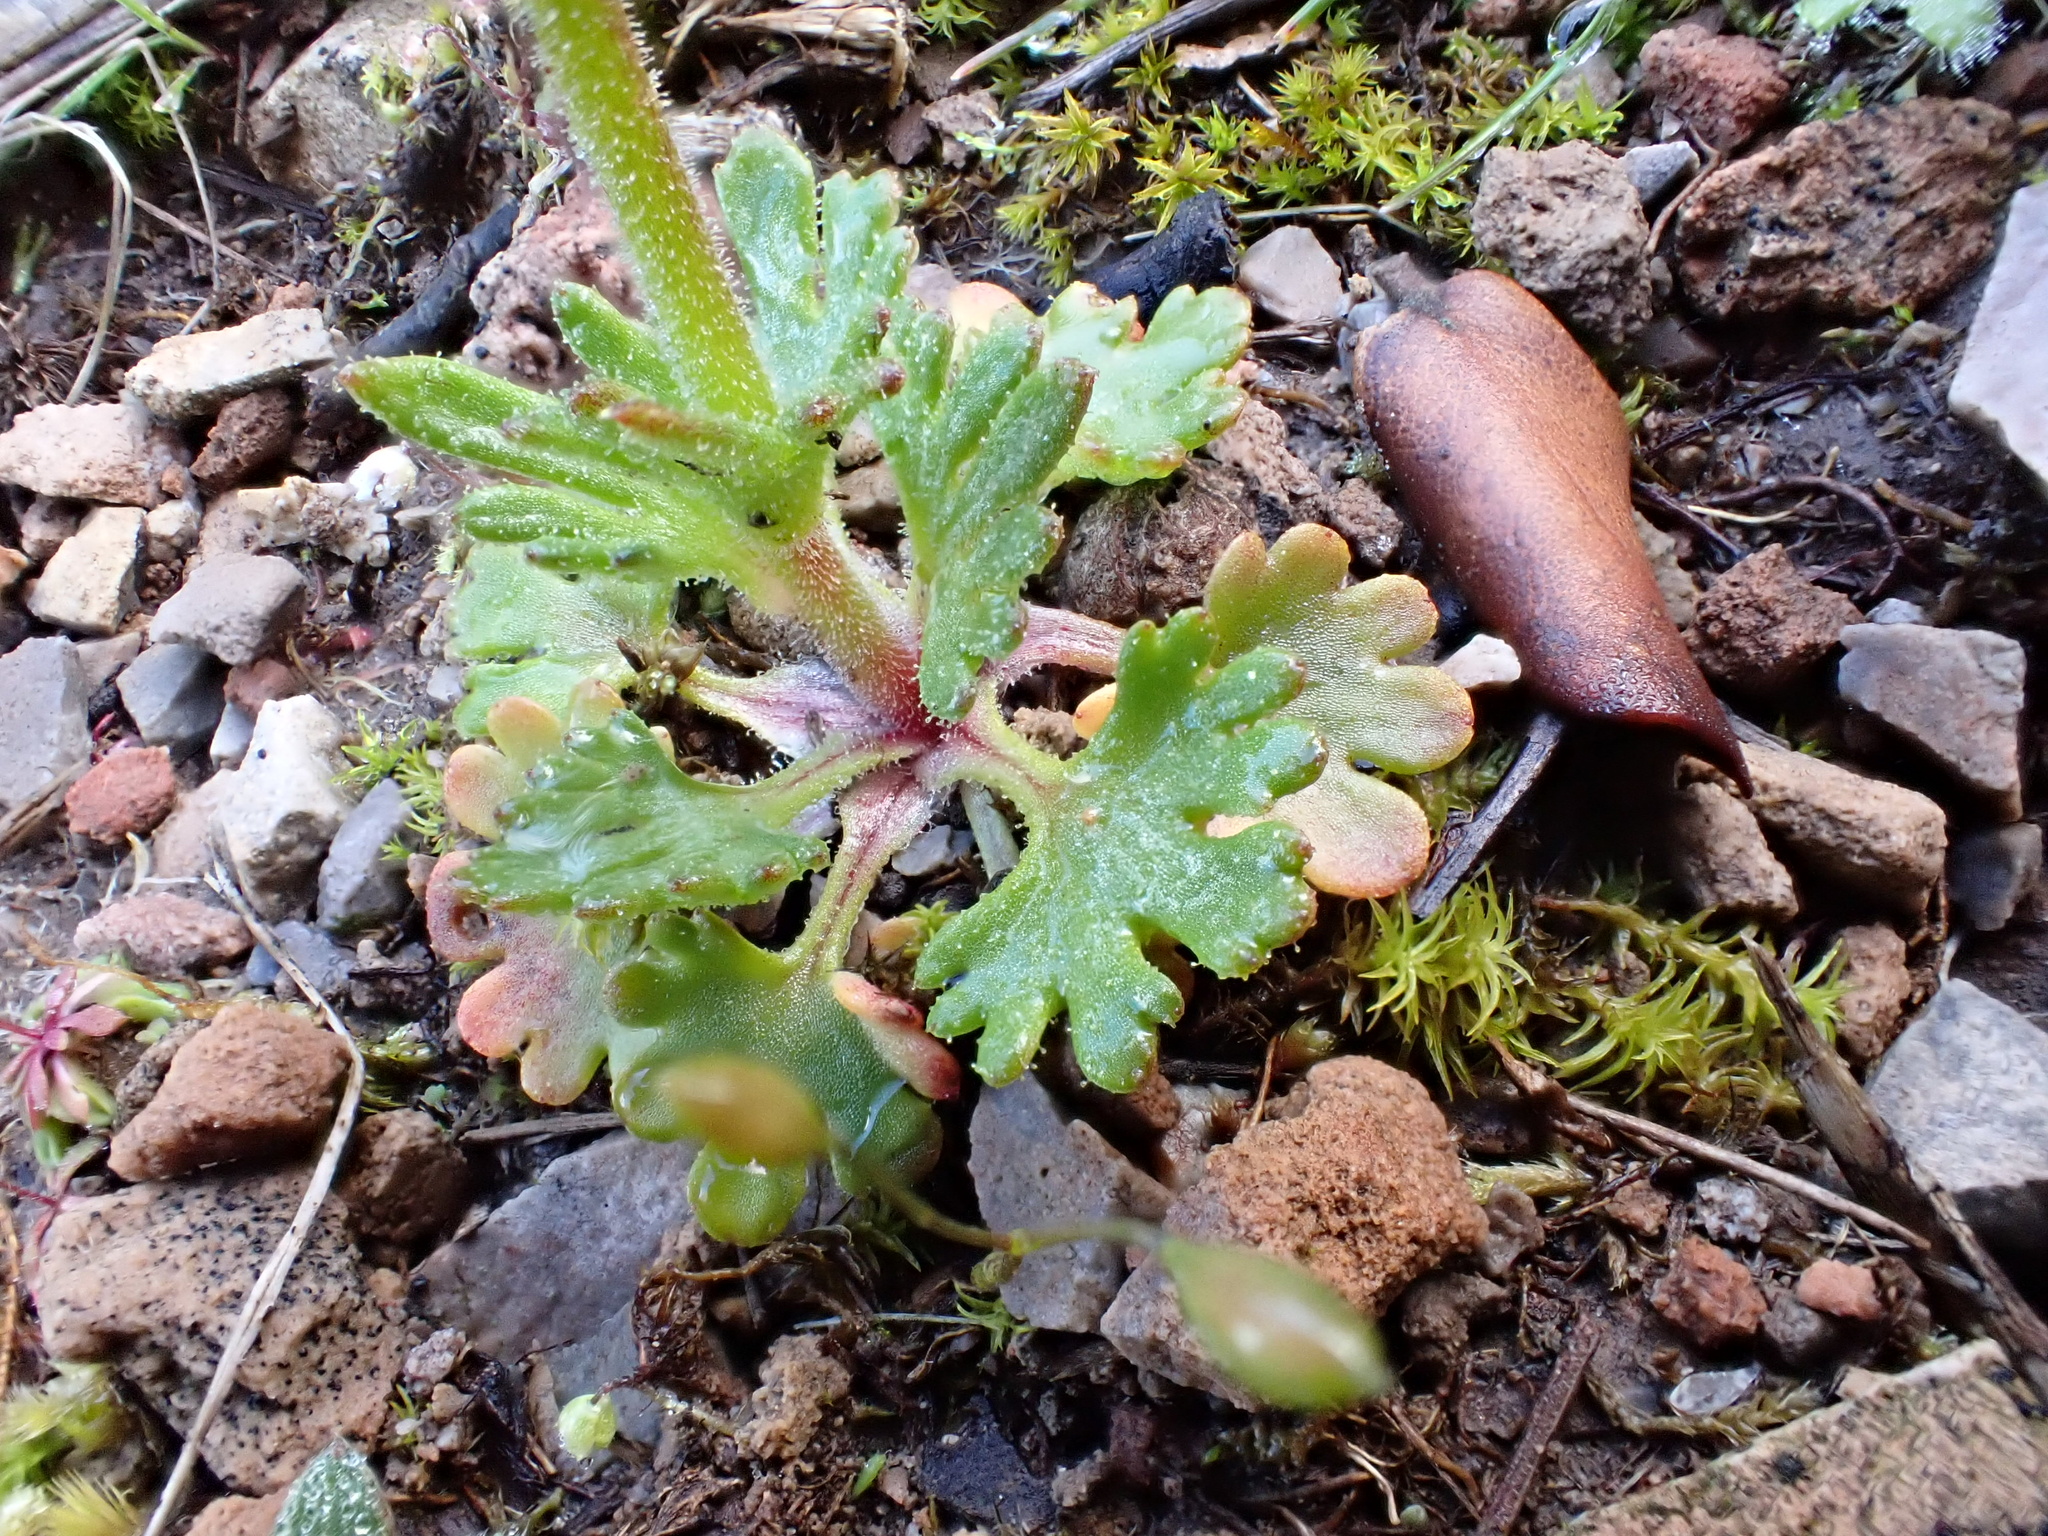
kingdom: Plantae
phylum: Tracheophyta
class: Magnoliopsida
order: Saxifragales
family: Saxifragaceae
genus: Saxifraga
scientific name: Saxifraga dichotoma
